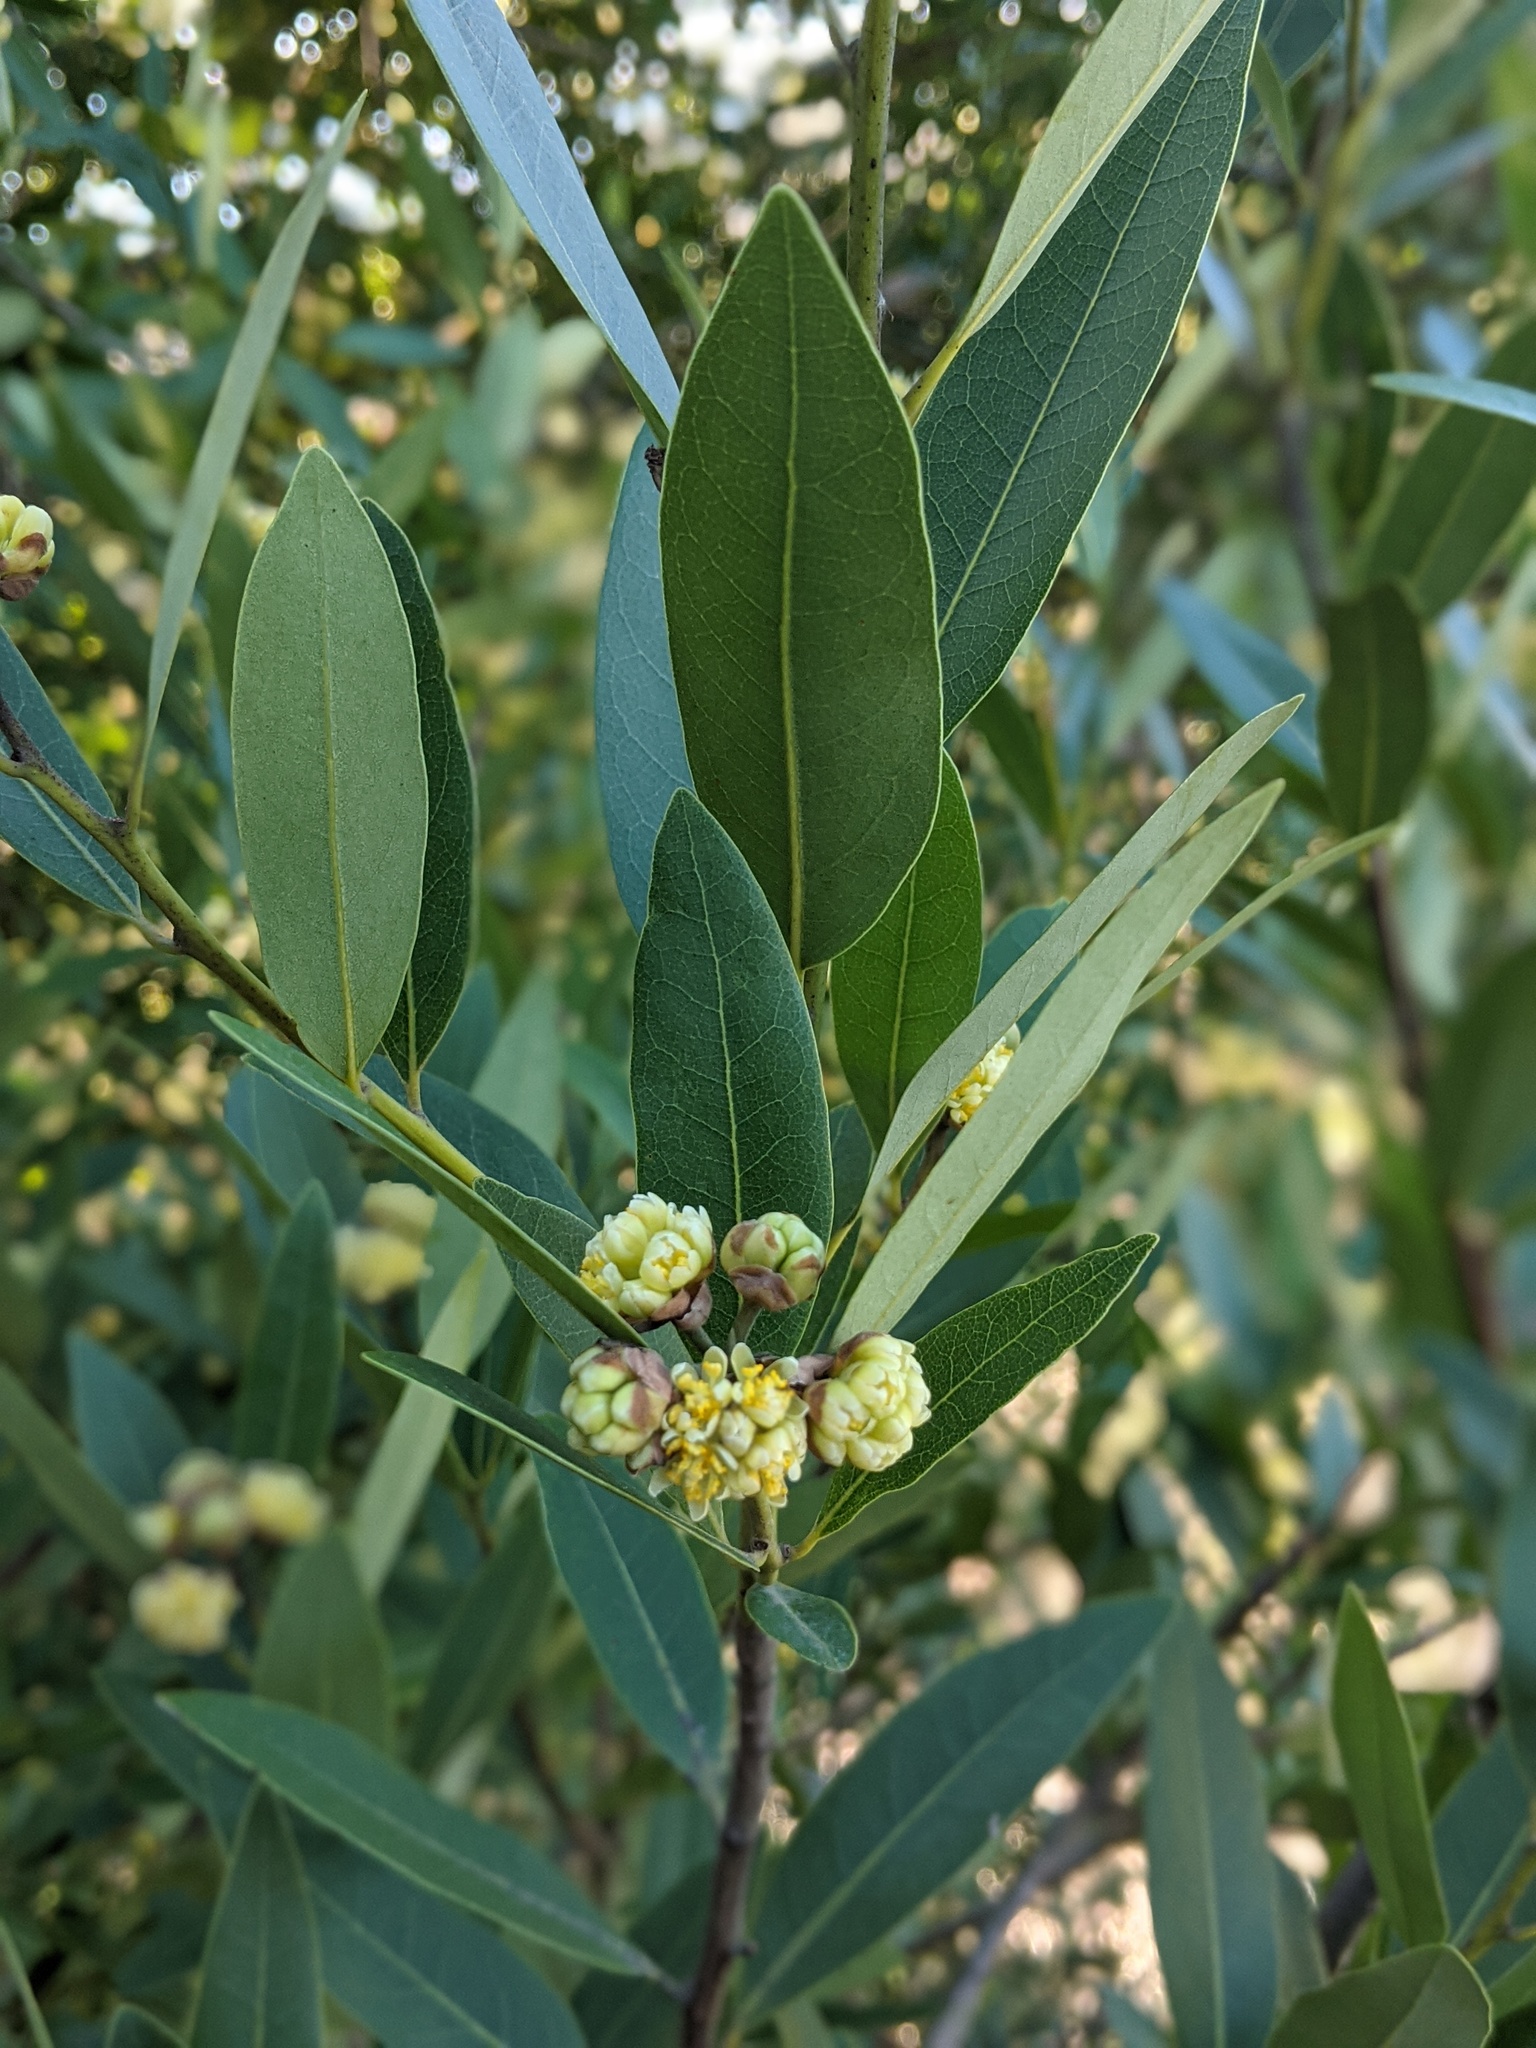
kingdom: Plantae
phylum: Tracheophyta
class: Magnoliopsida
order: Laurales
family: Lauraceae
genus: Umbellularia
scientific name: Umbellularia californica
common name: California bay
